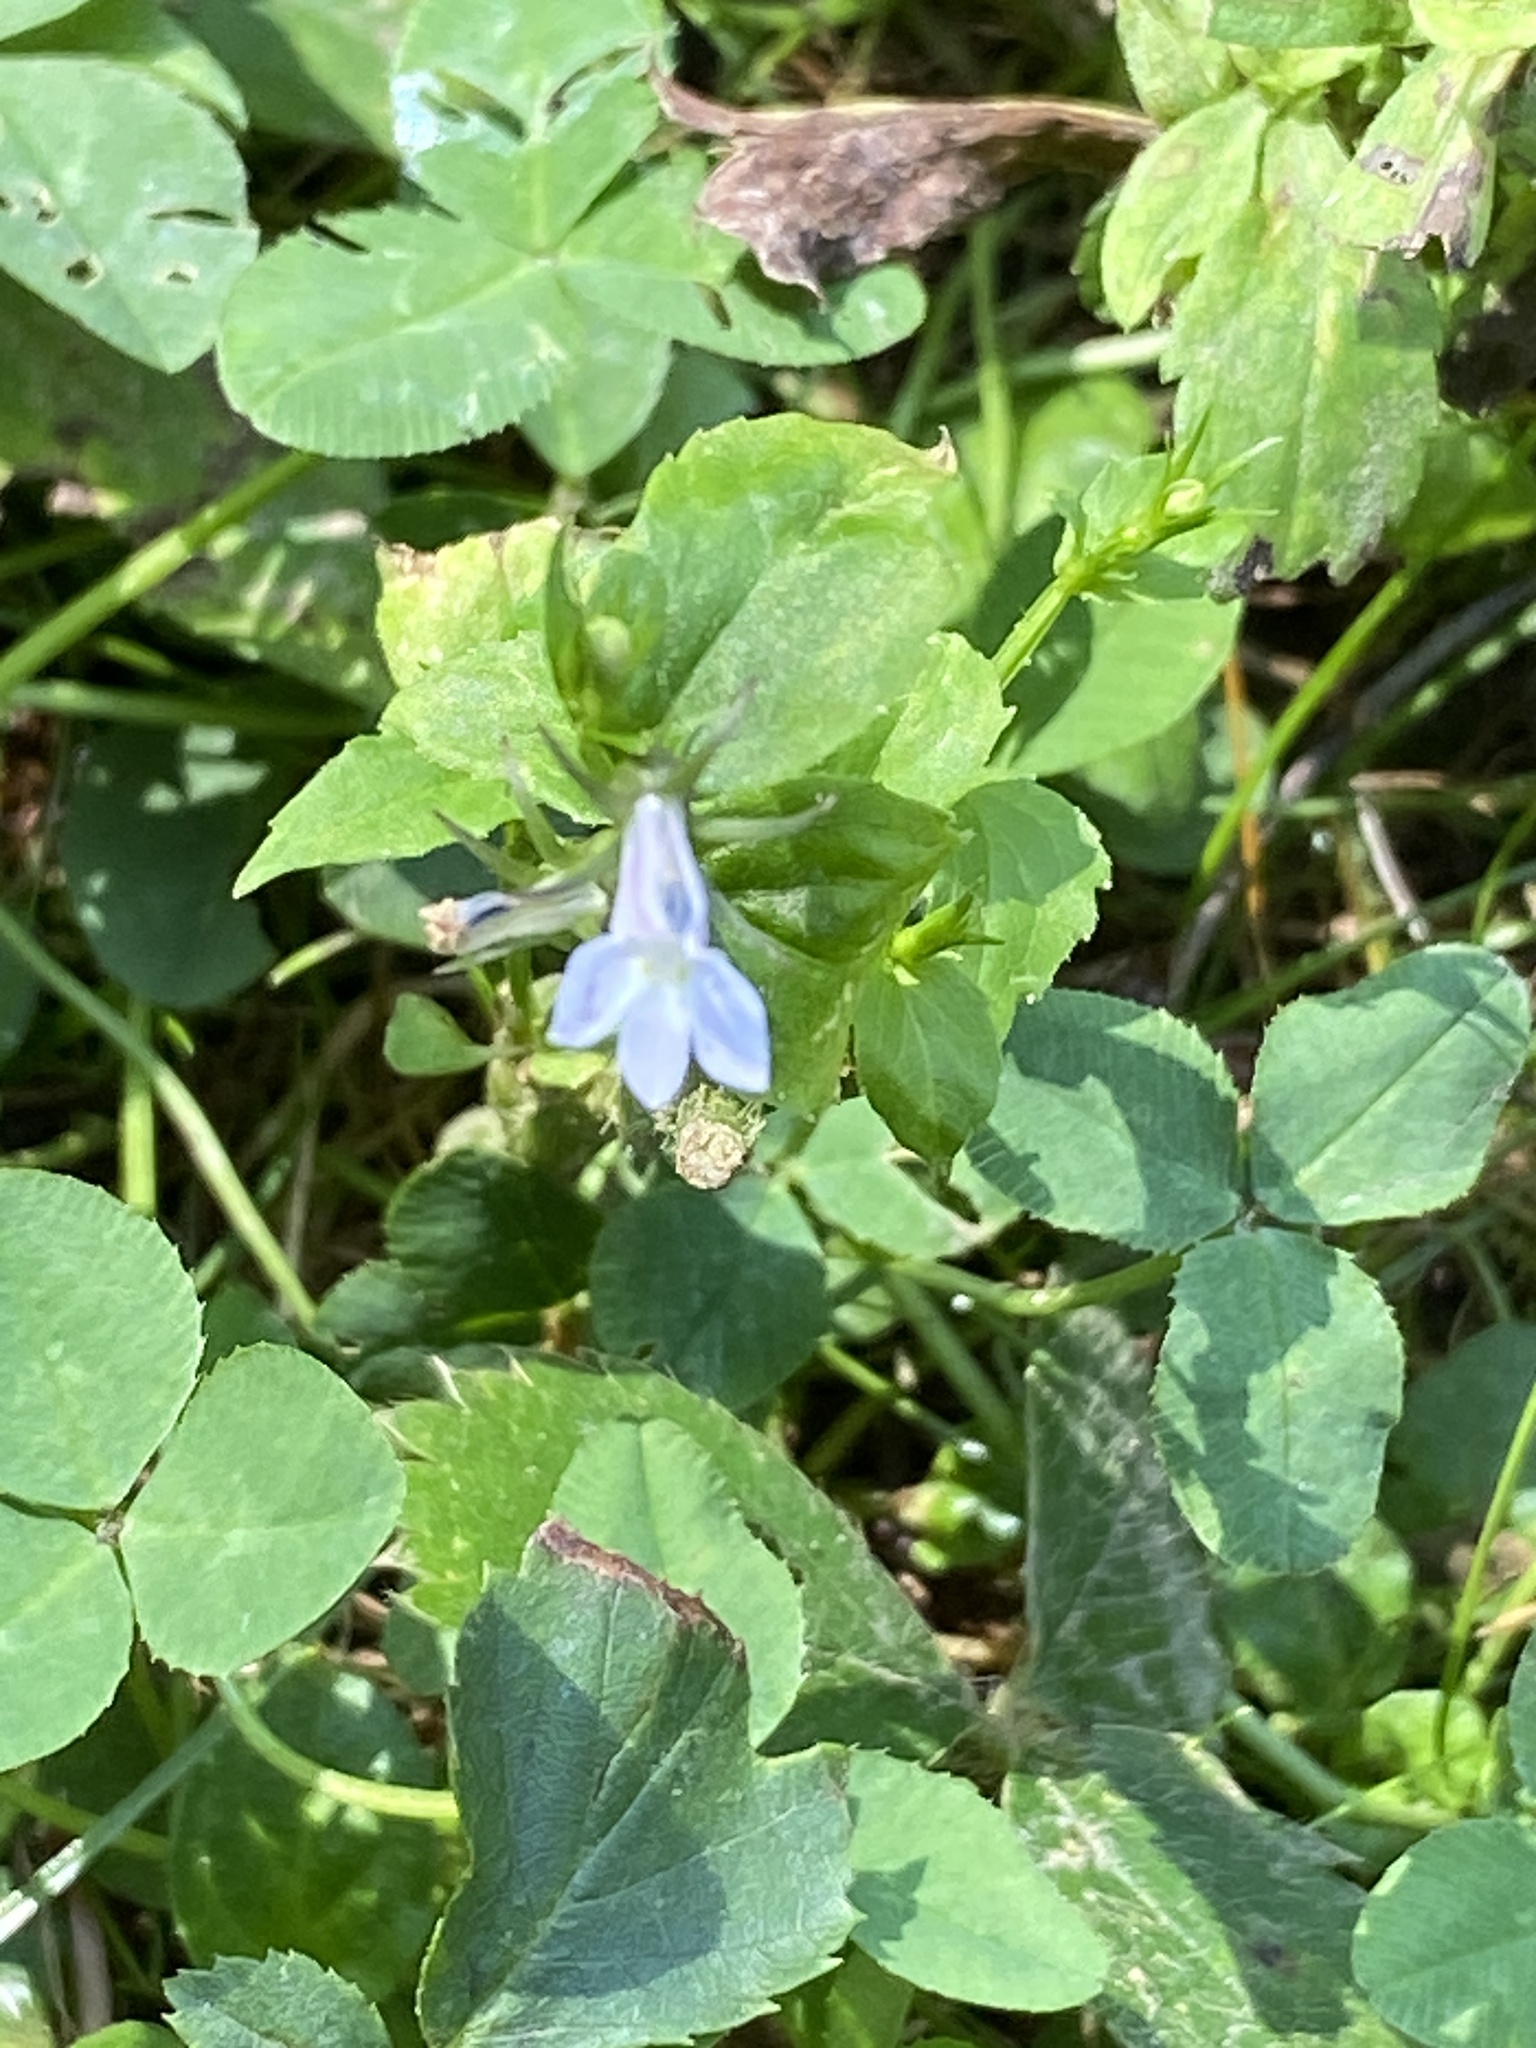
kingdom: Plantae
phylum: Tracheophyta
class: Magnoliopsida
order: Asterales
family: Campanulaceae
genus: Lobelia
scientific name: Lobelia inflata
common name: Indian tobacco
